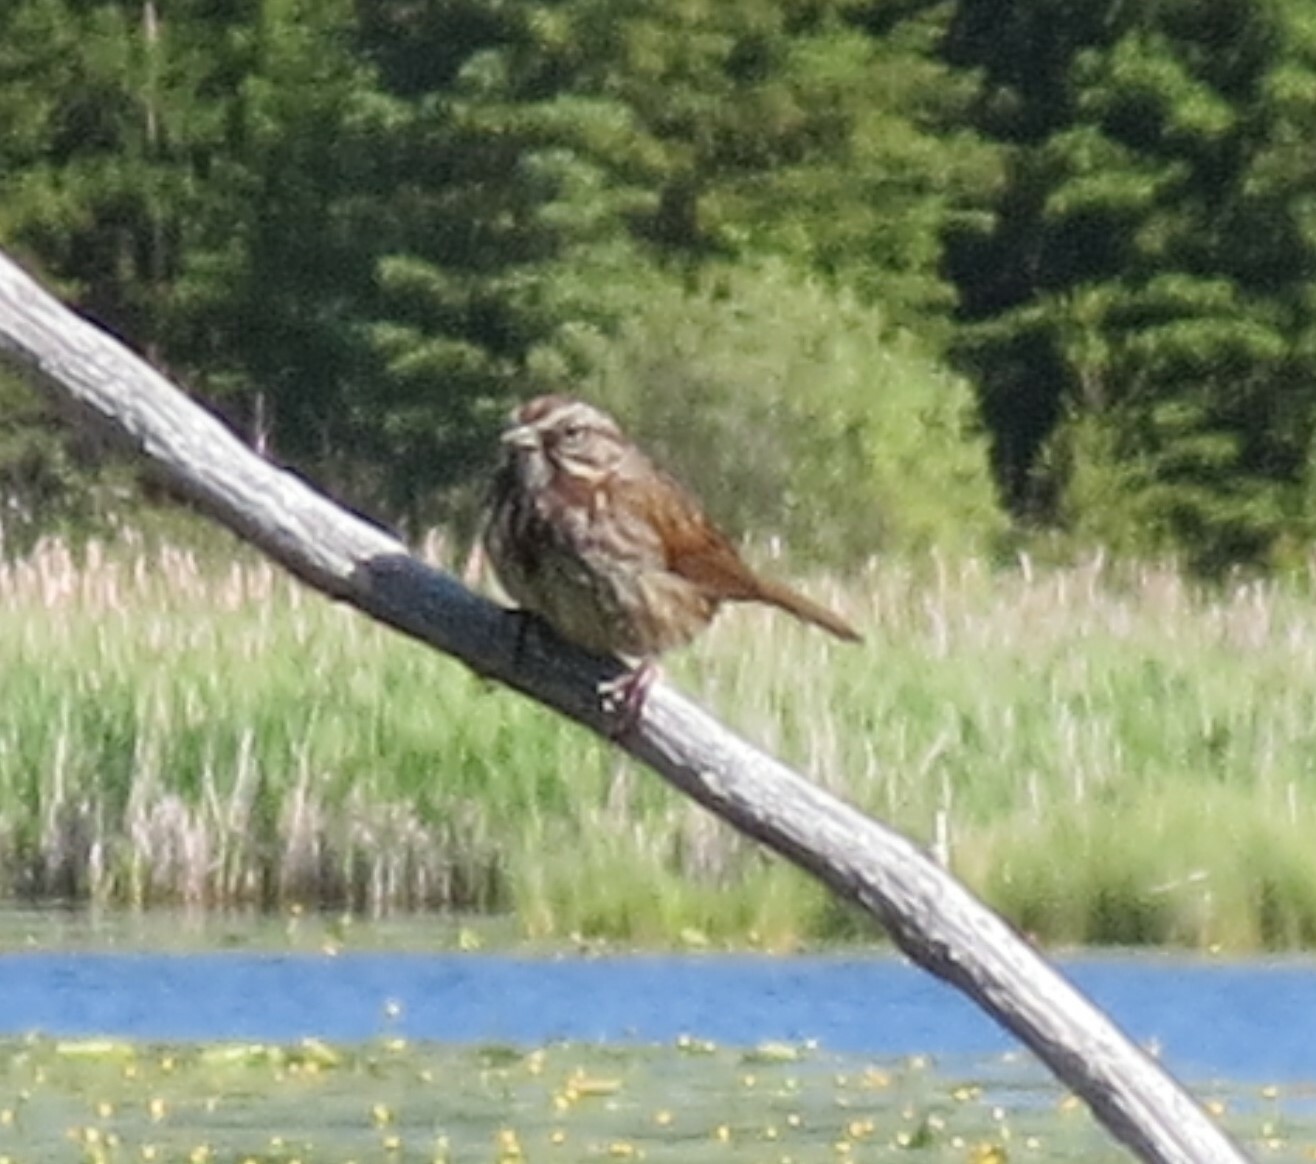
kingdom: Animalia
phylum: Chordata
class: Aves
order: Passeriformes
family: Passerellidae
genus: Melospiza
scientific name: Melospiza melodia
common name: Song sparrow
